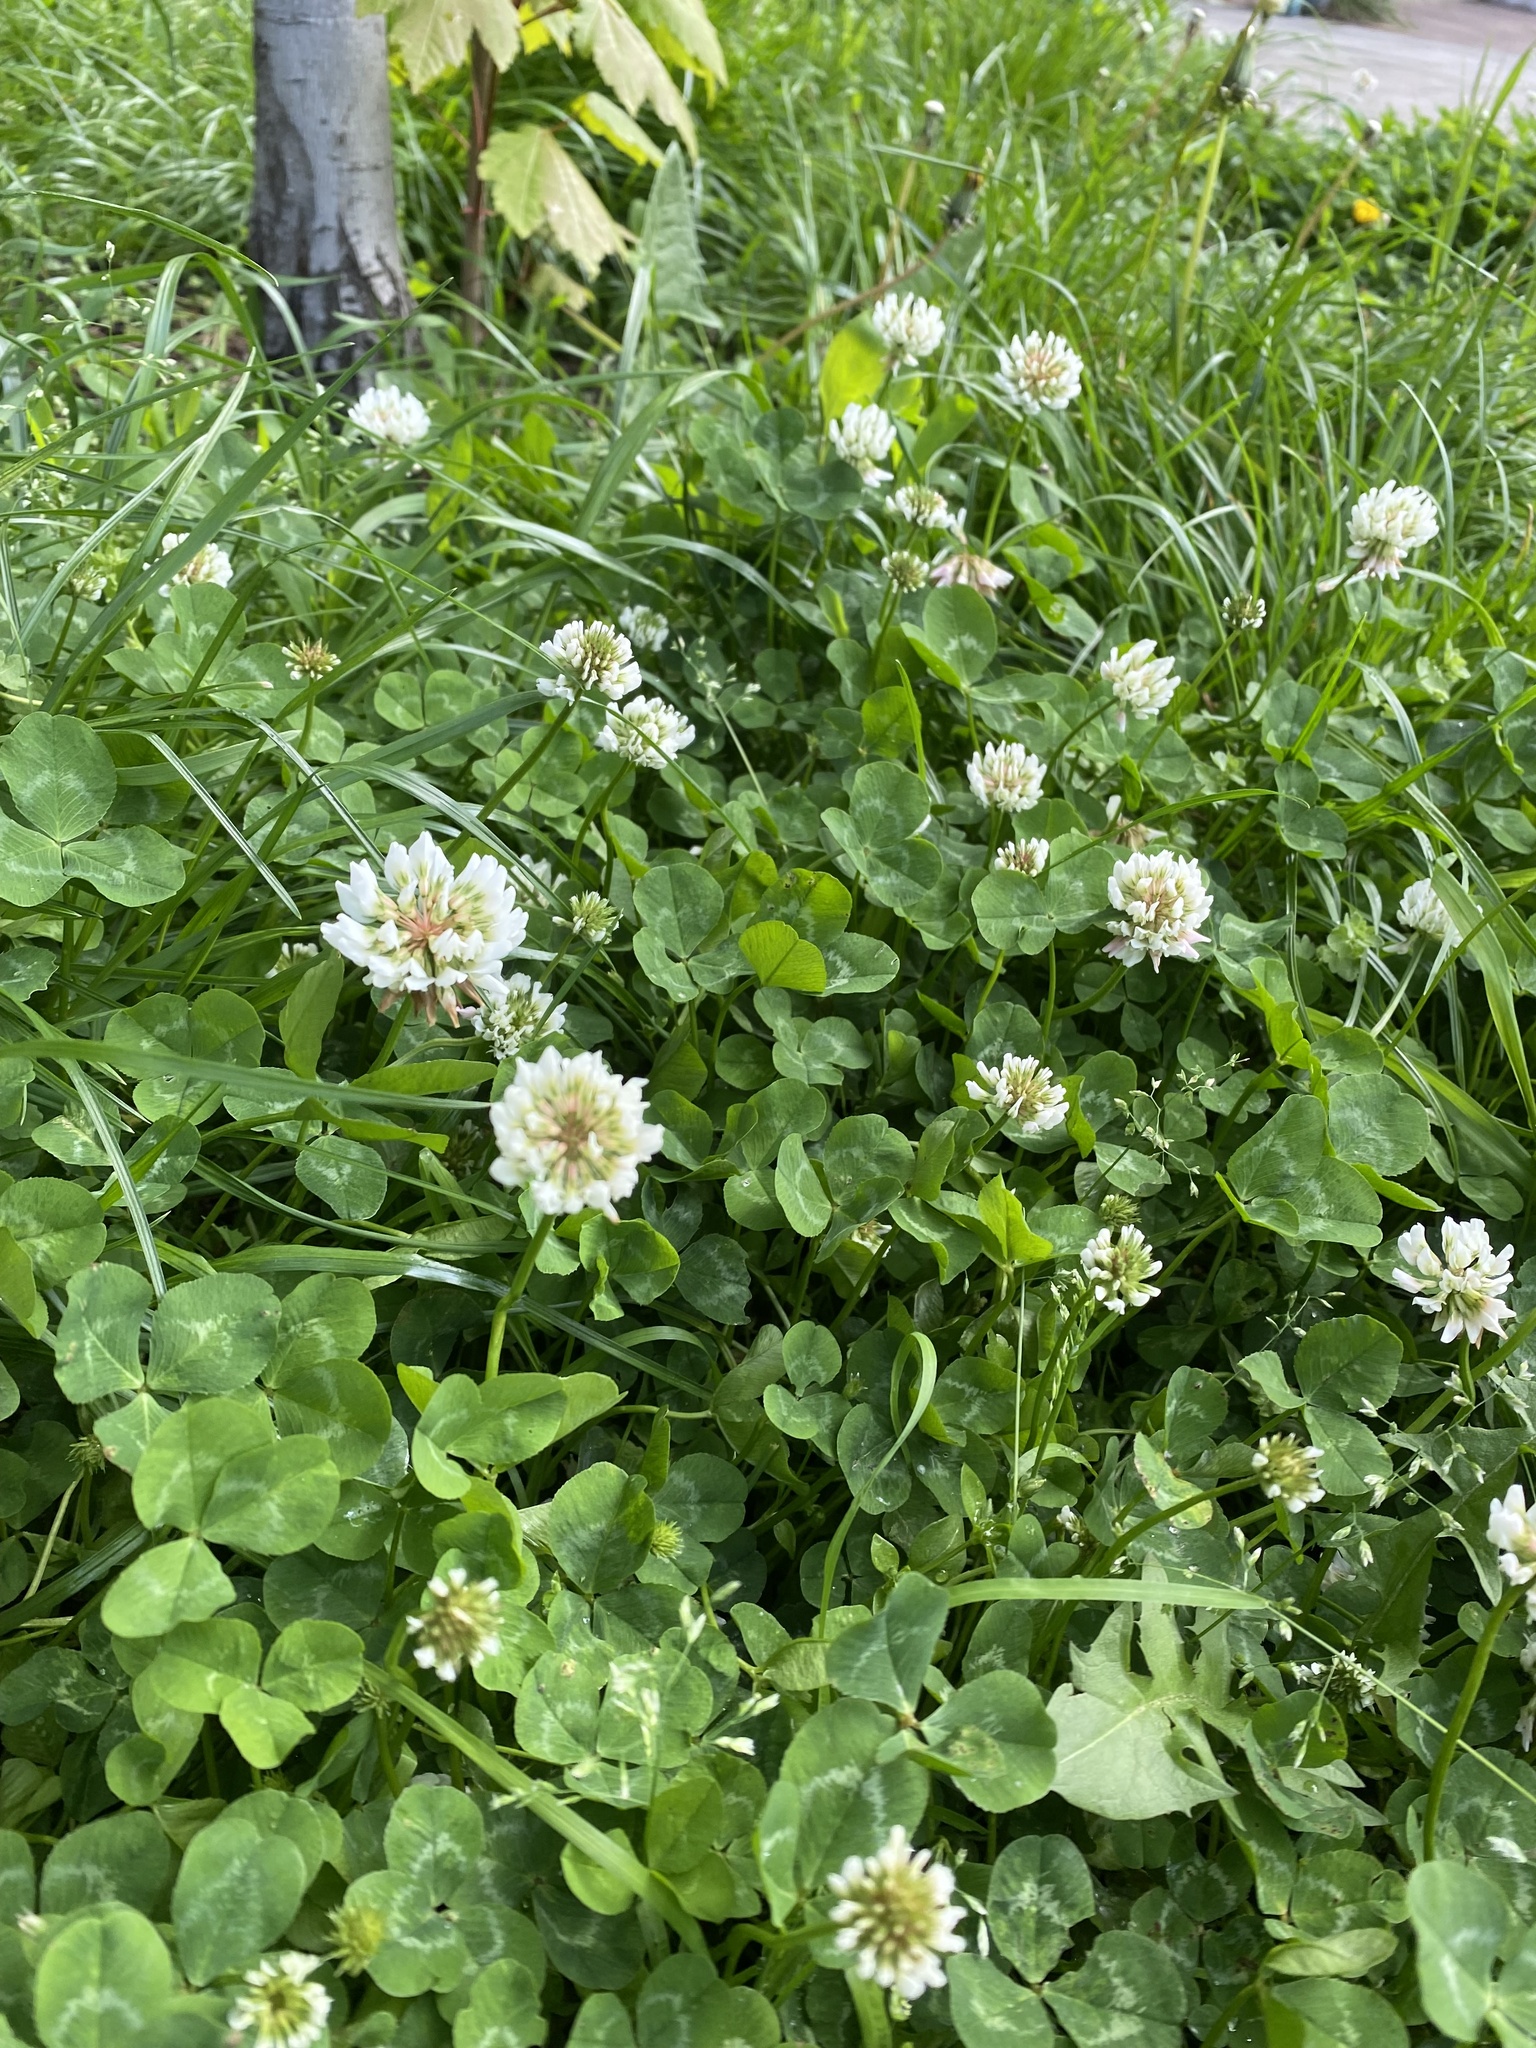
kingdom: Plantae
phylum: Tracheophyta
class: Magnoliopsida
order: Fabales
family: Fabaceae
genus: Trifolium
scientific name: Trifolium repens
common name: White clover
